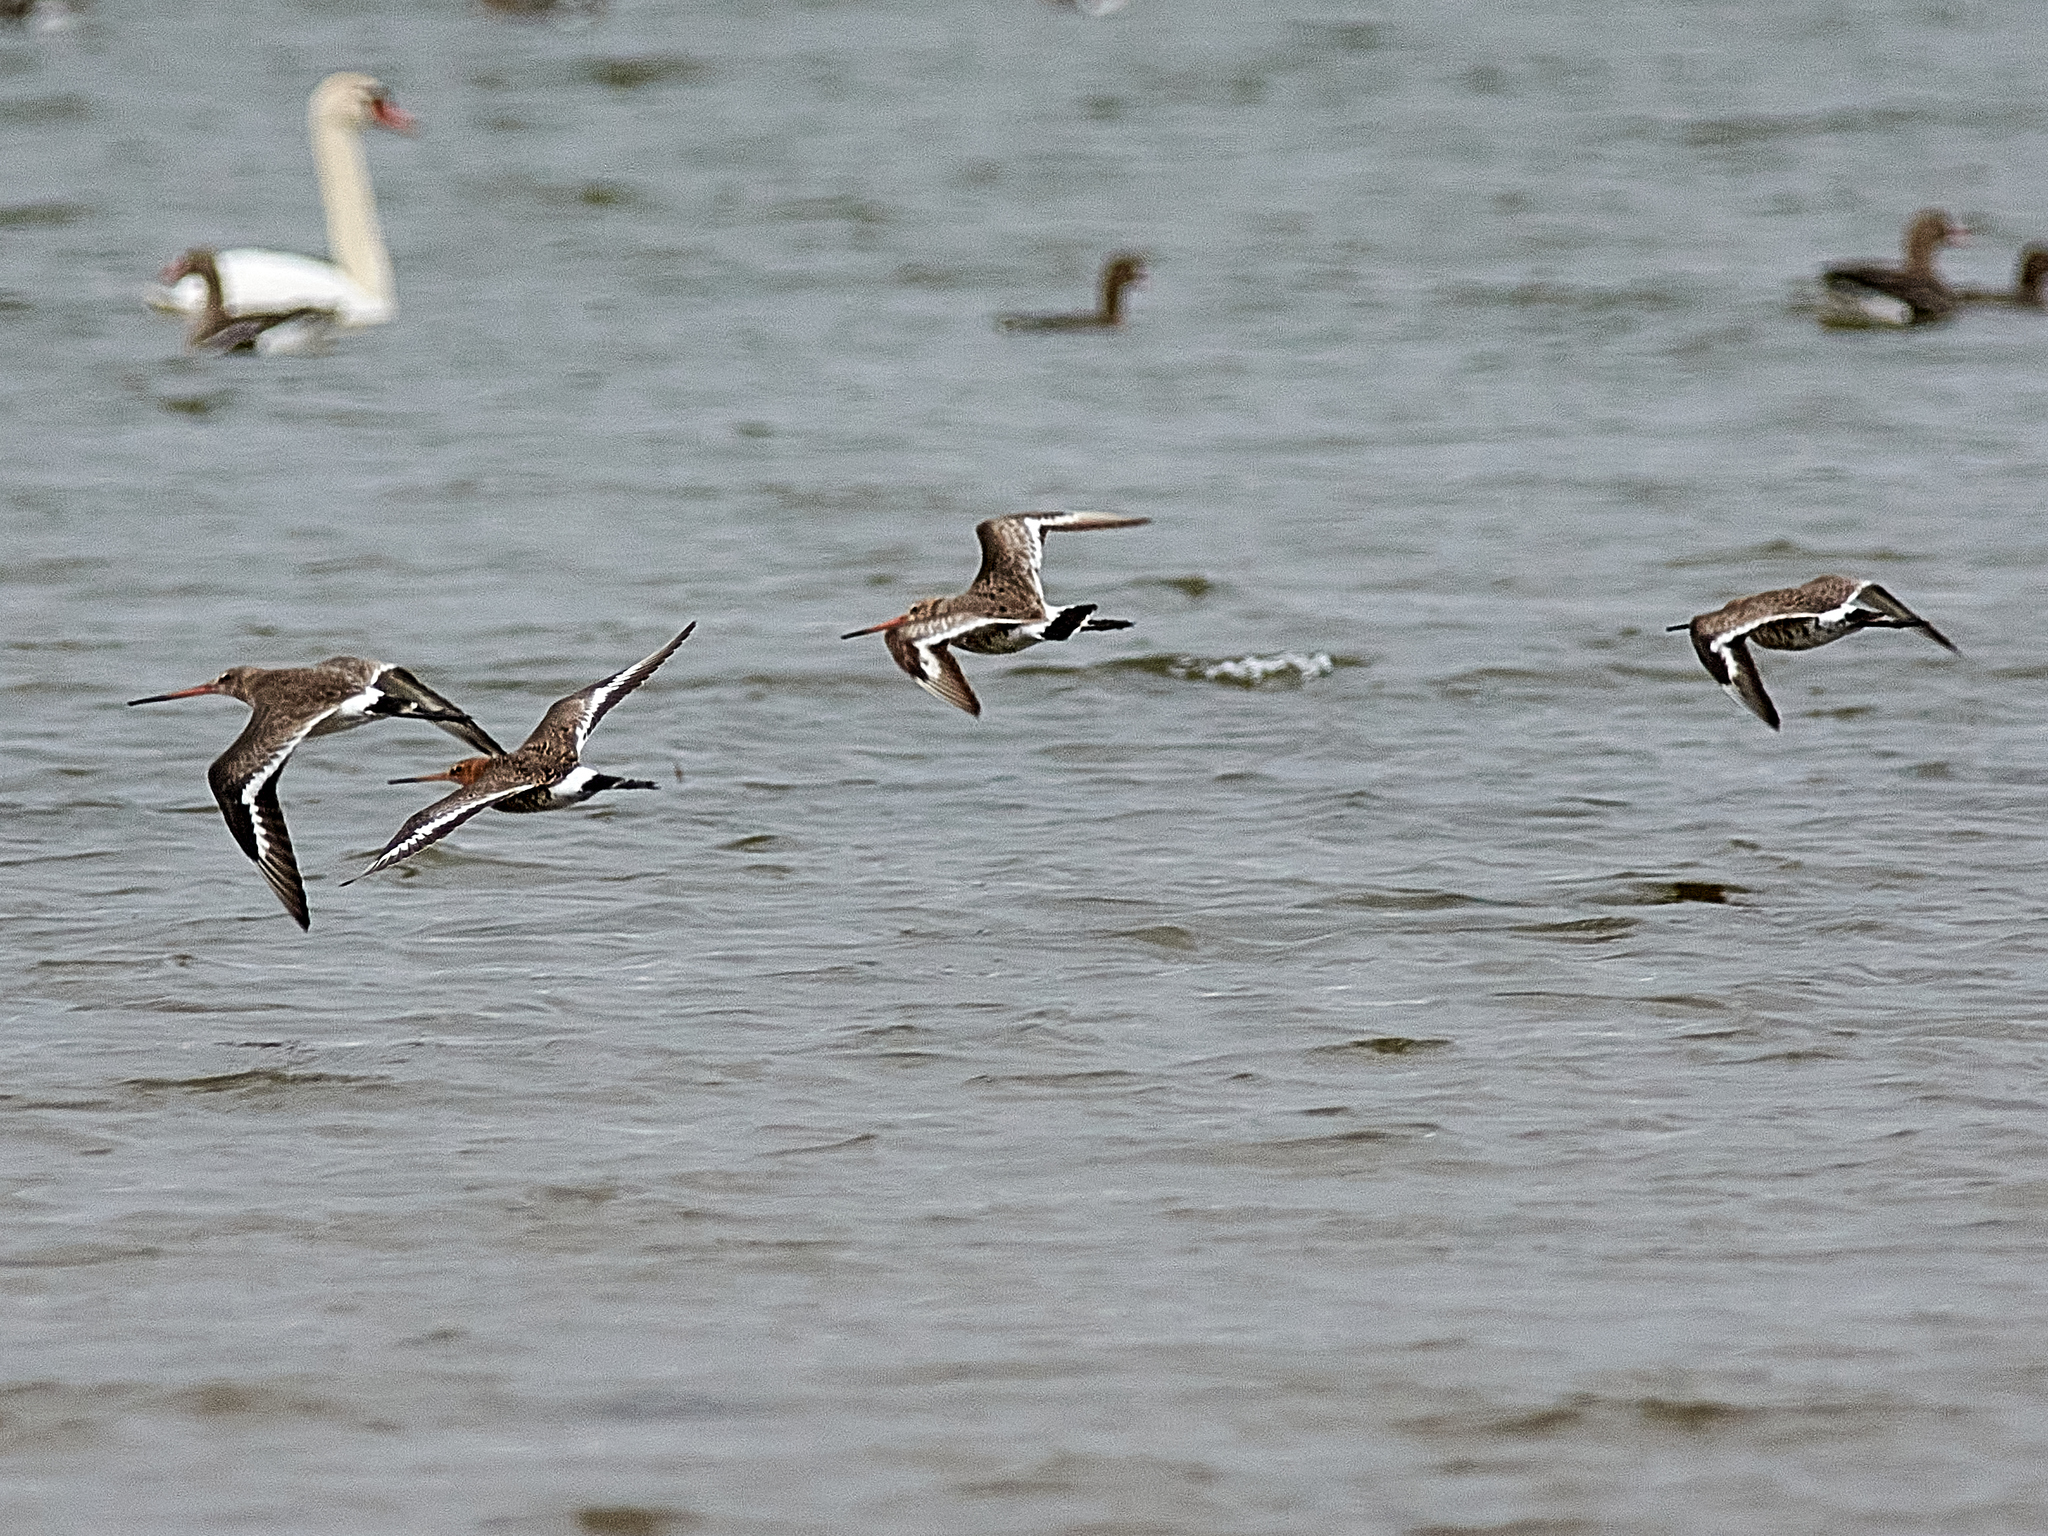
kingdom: Animalia
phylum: Chordata
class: Aves
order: Charadriiformes
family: Scolopacidae
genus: Limosa
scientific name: Limosa limosa
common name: Black-tailed godwit
